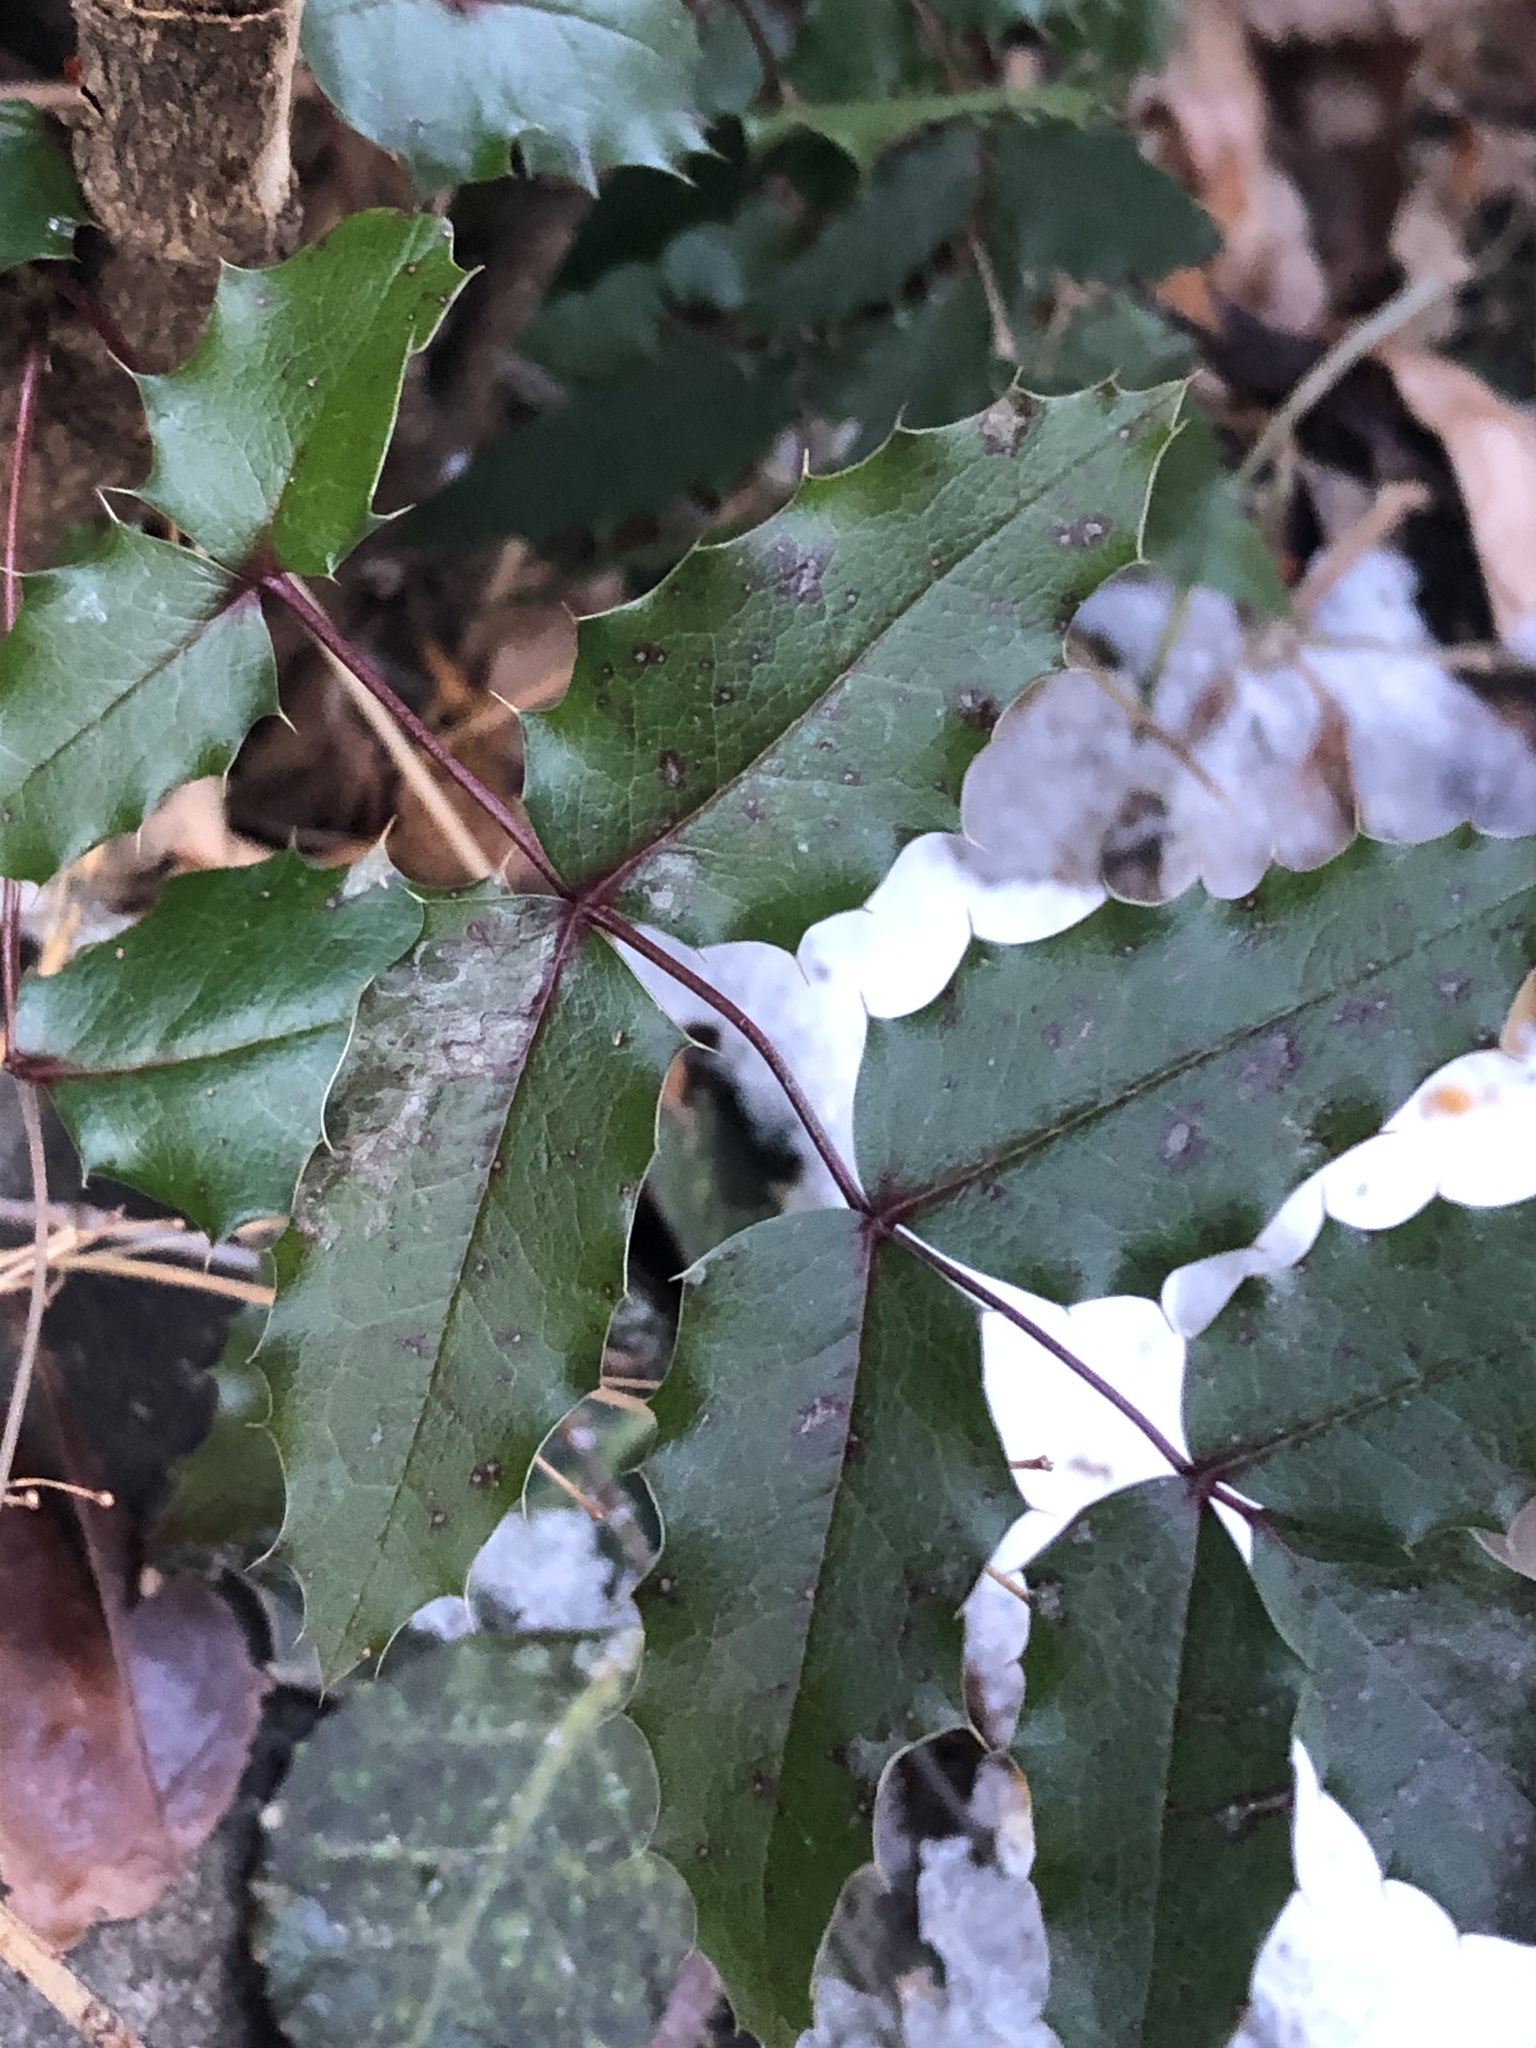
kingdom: Plantae
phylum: Tracheophyta
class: Magnoliopsida
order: Ranunculales
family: Berberidaceae
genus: Mahonia
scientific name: Mahonia aquifolium
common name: Oregon-grape
